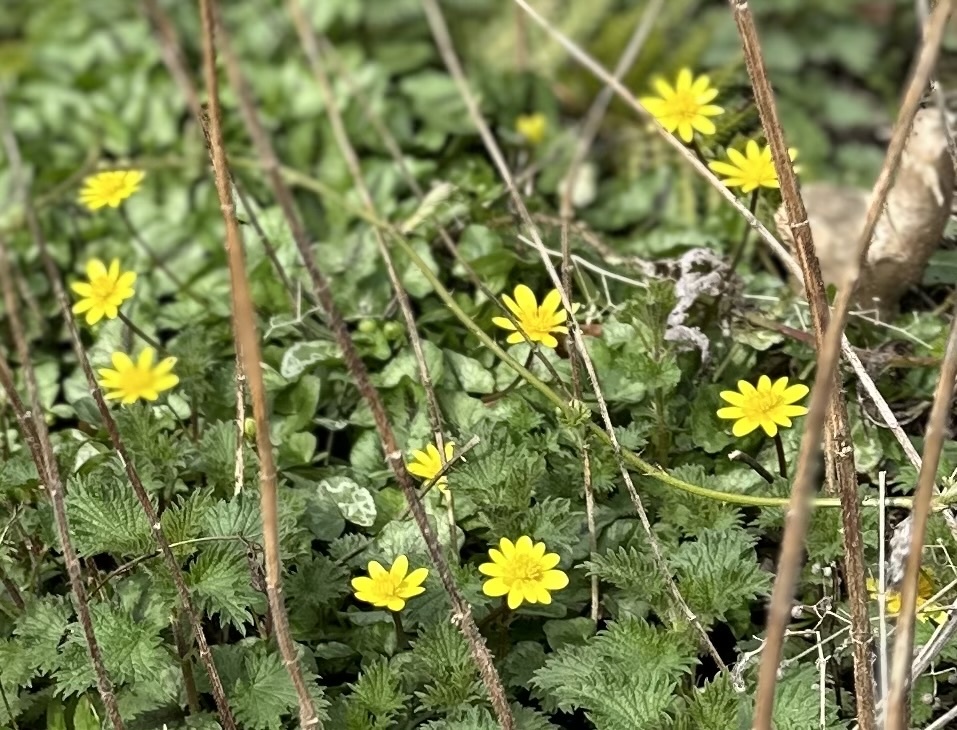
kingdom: Plantae
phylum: Tracheophyta
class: Magnoliopsida
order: Ranunculales
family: Ranunculaceae
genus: Ficaria
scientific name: Ficaria verna
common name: Lesser celandine
